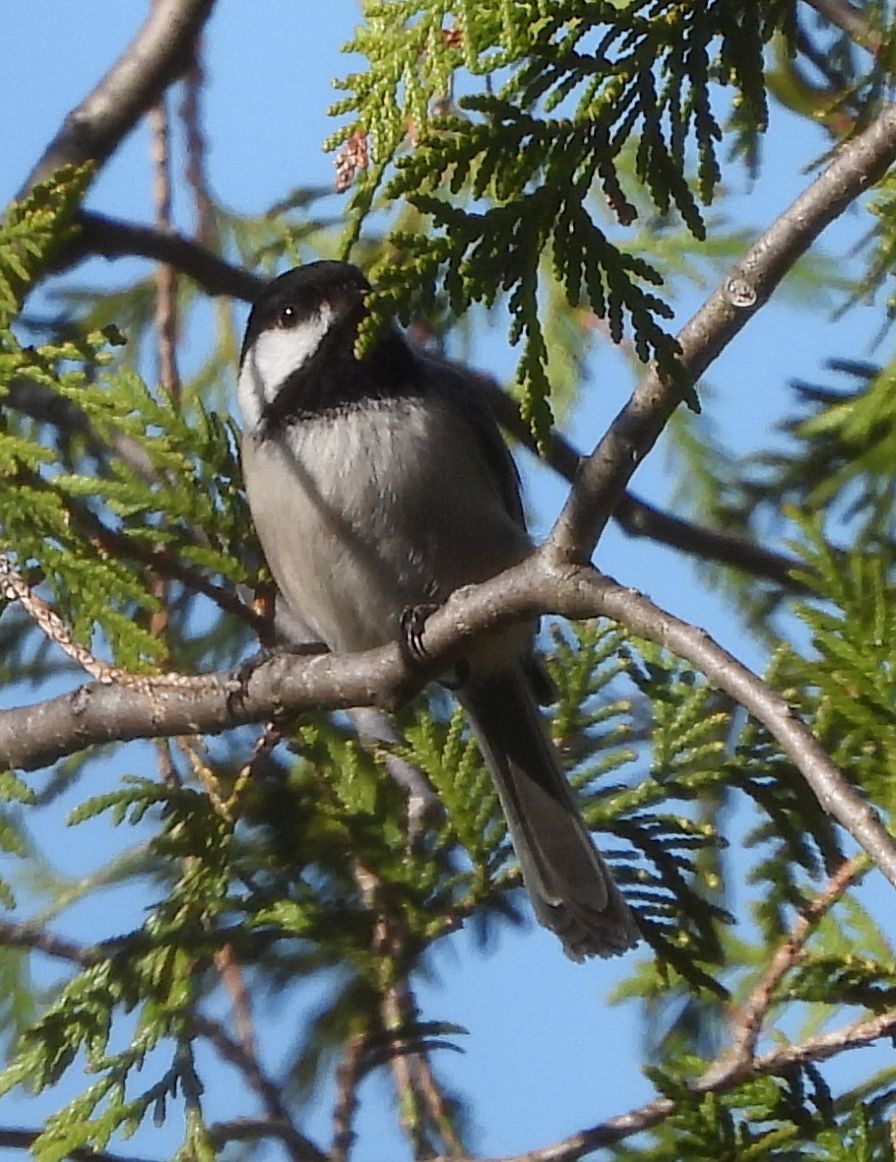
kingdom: Animalia
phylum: Chordata
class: Aves
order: Passeriformes
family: Paridae
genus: Poecile
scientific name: Poecile atricapillus
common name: Black-capped chickadee
